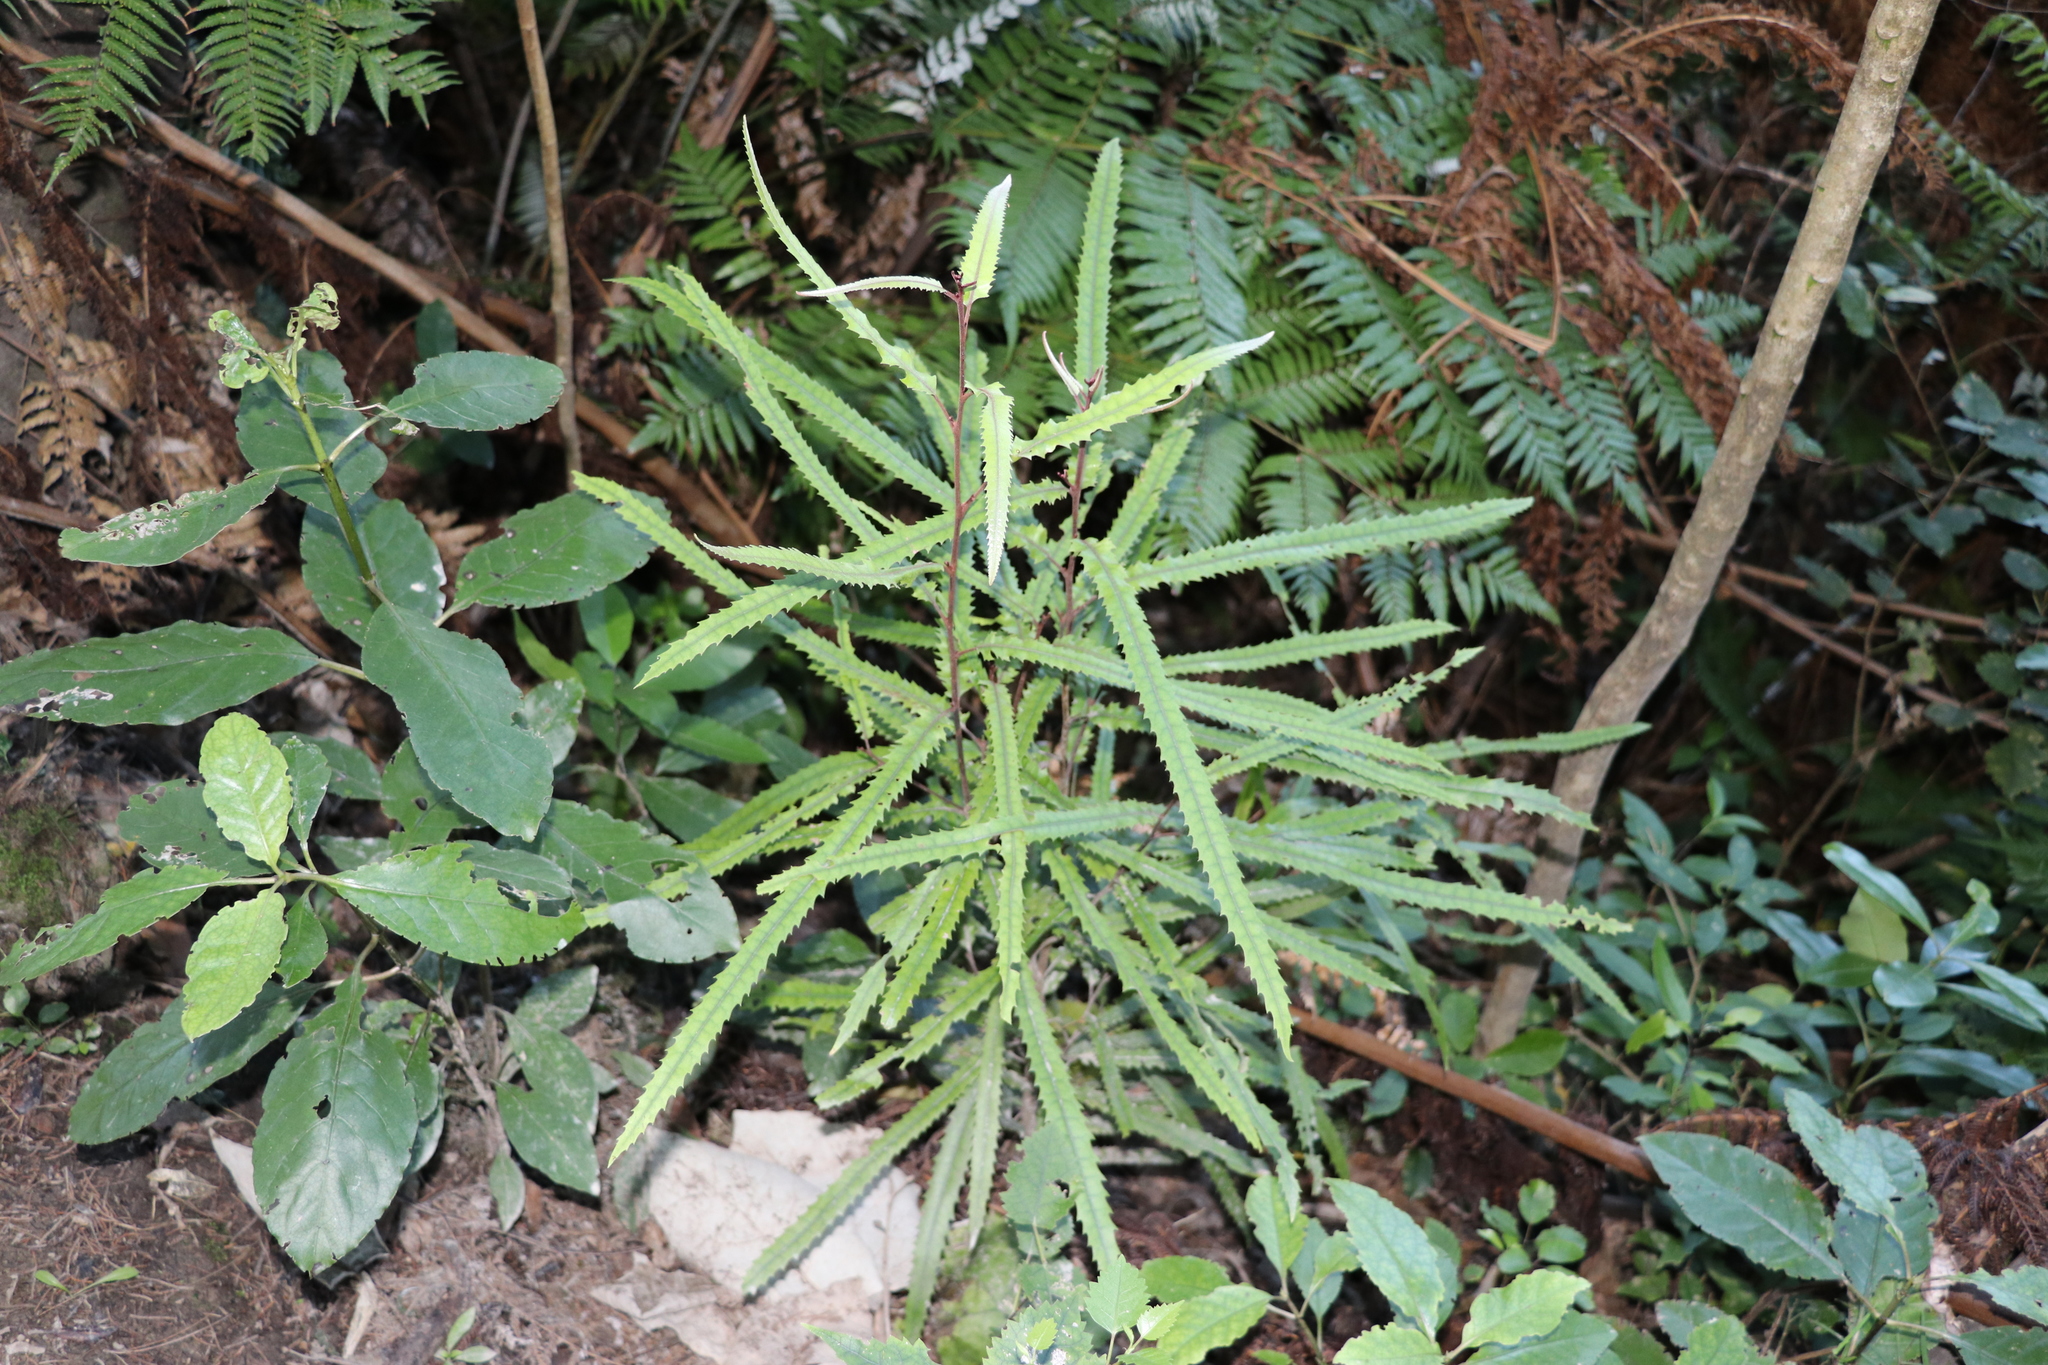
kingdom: Plantae
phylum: Tracheophyta
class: Magnoliopsida
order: Proteales
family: Proteaceae
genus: Knightia
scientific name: Knightia excelsa
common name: New zealand-honeysuckle
